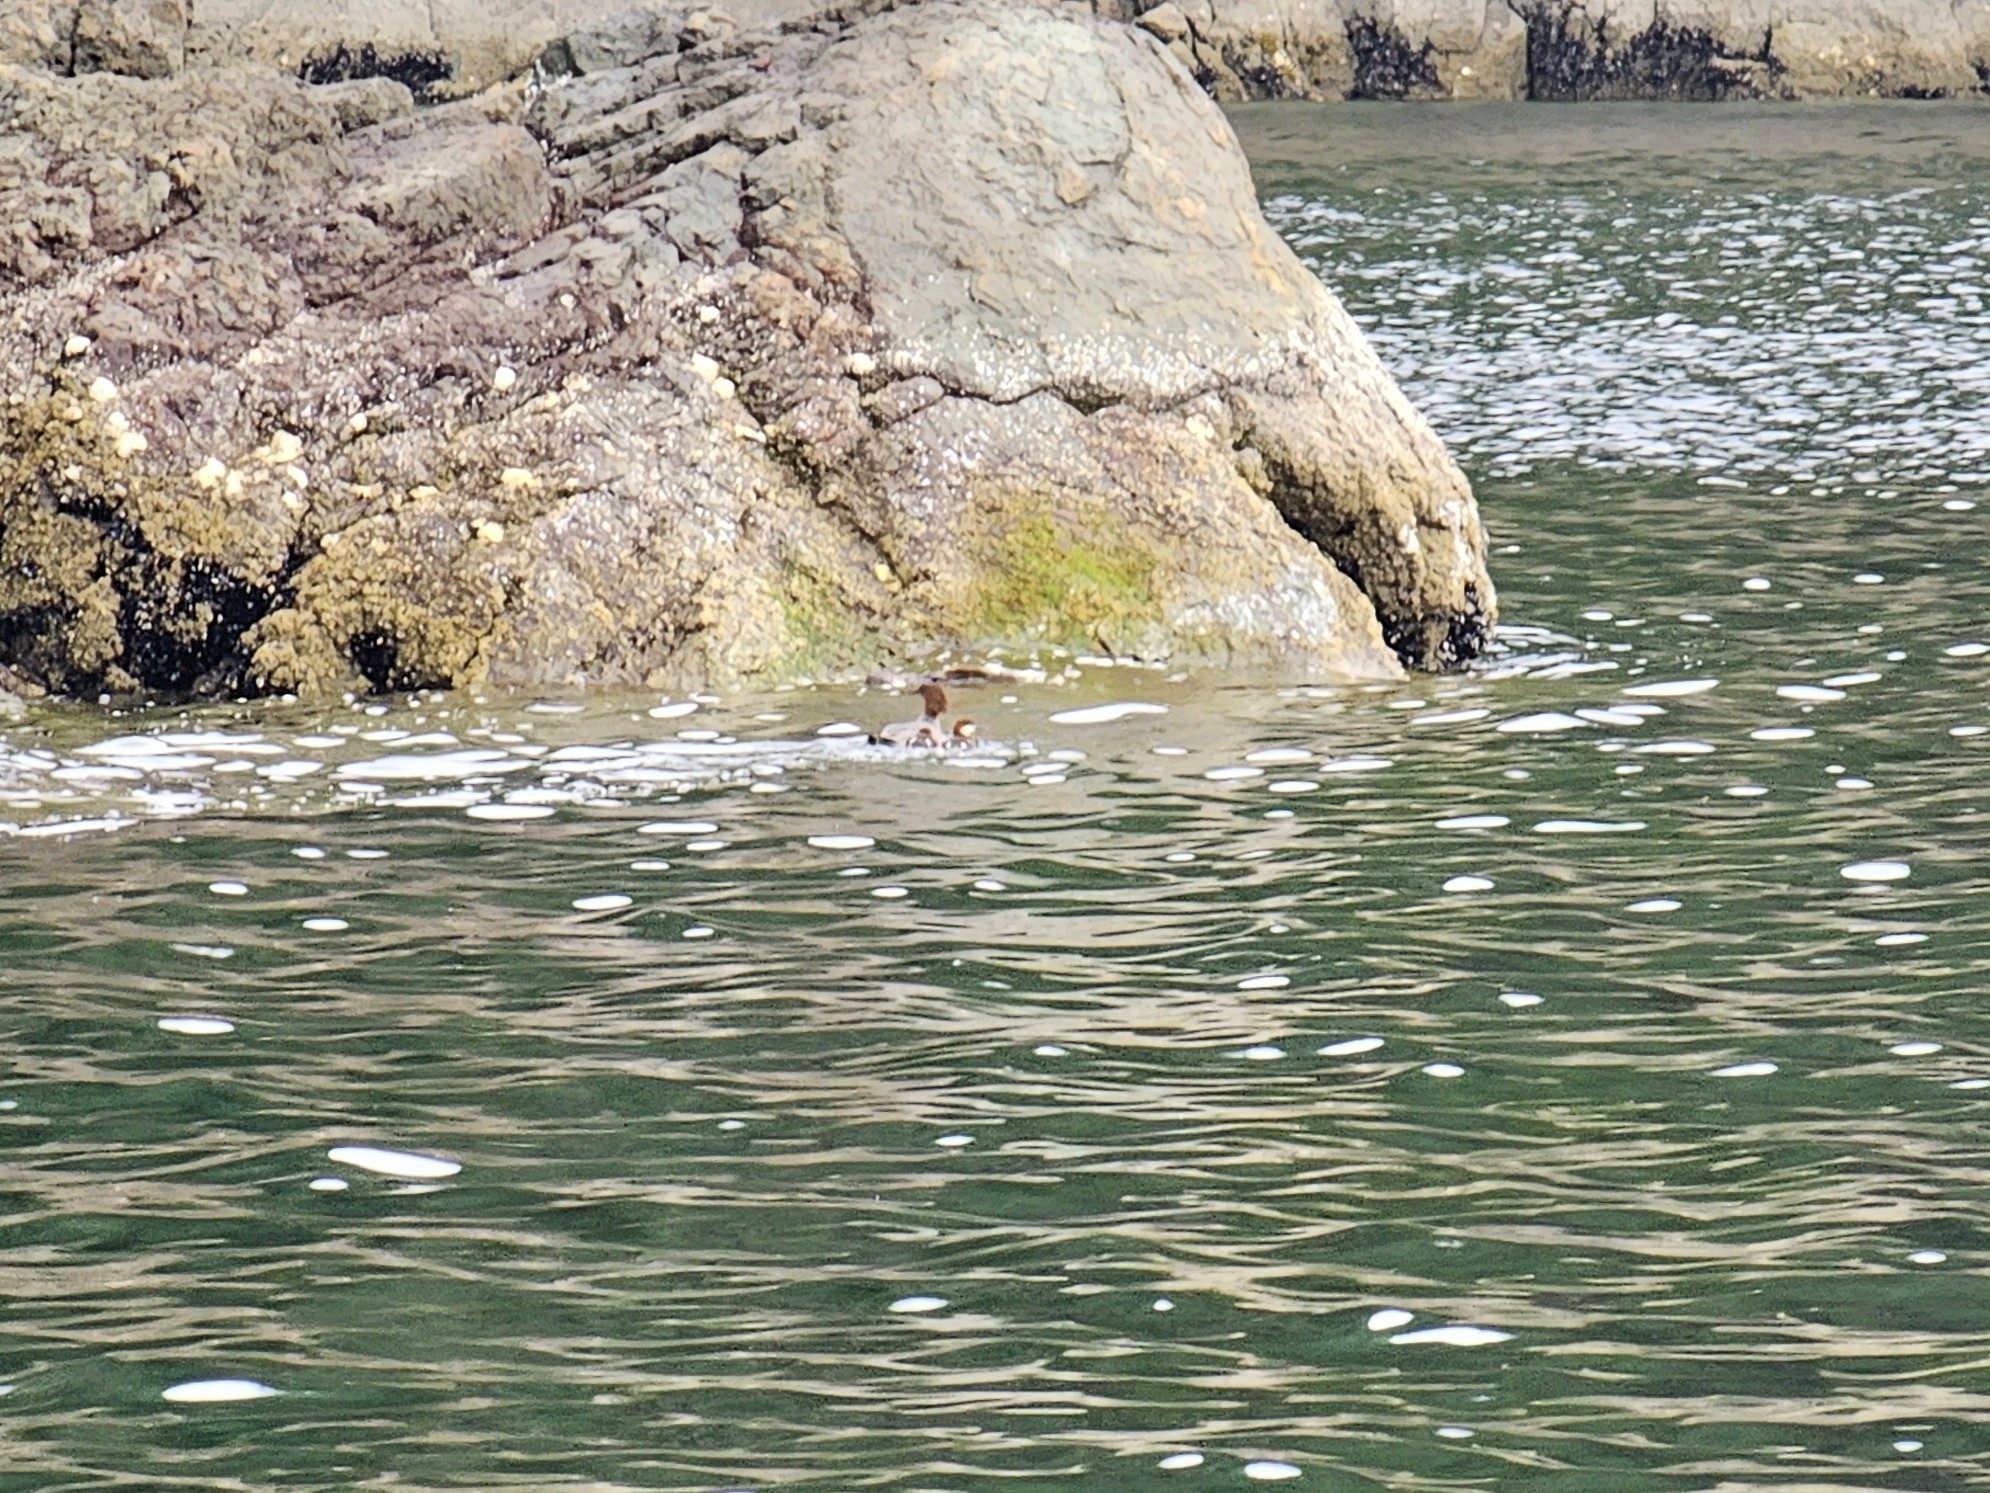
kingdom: Animalia
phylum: Chordata
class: Aves
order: Anseriformes
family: Anatidae
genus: Mergus
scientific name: Mergus merganser
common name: Common merganser
